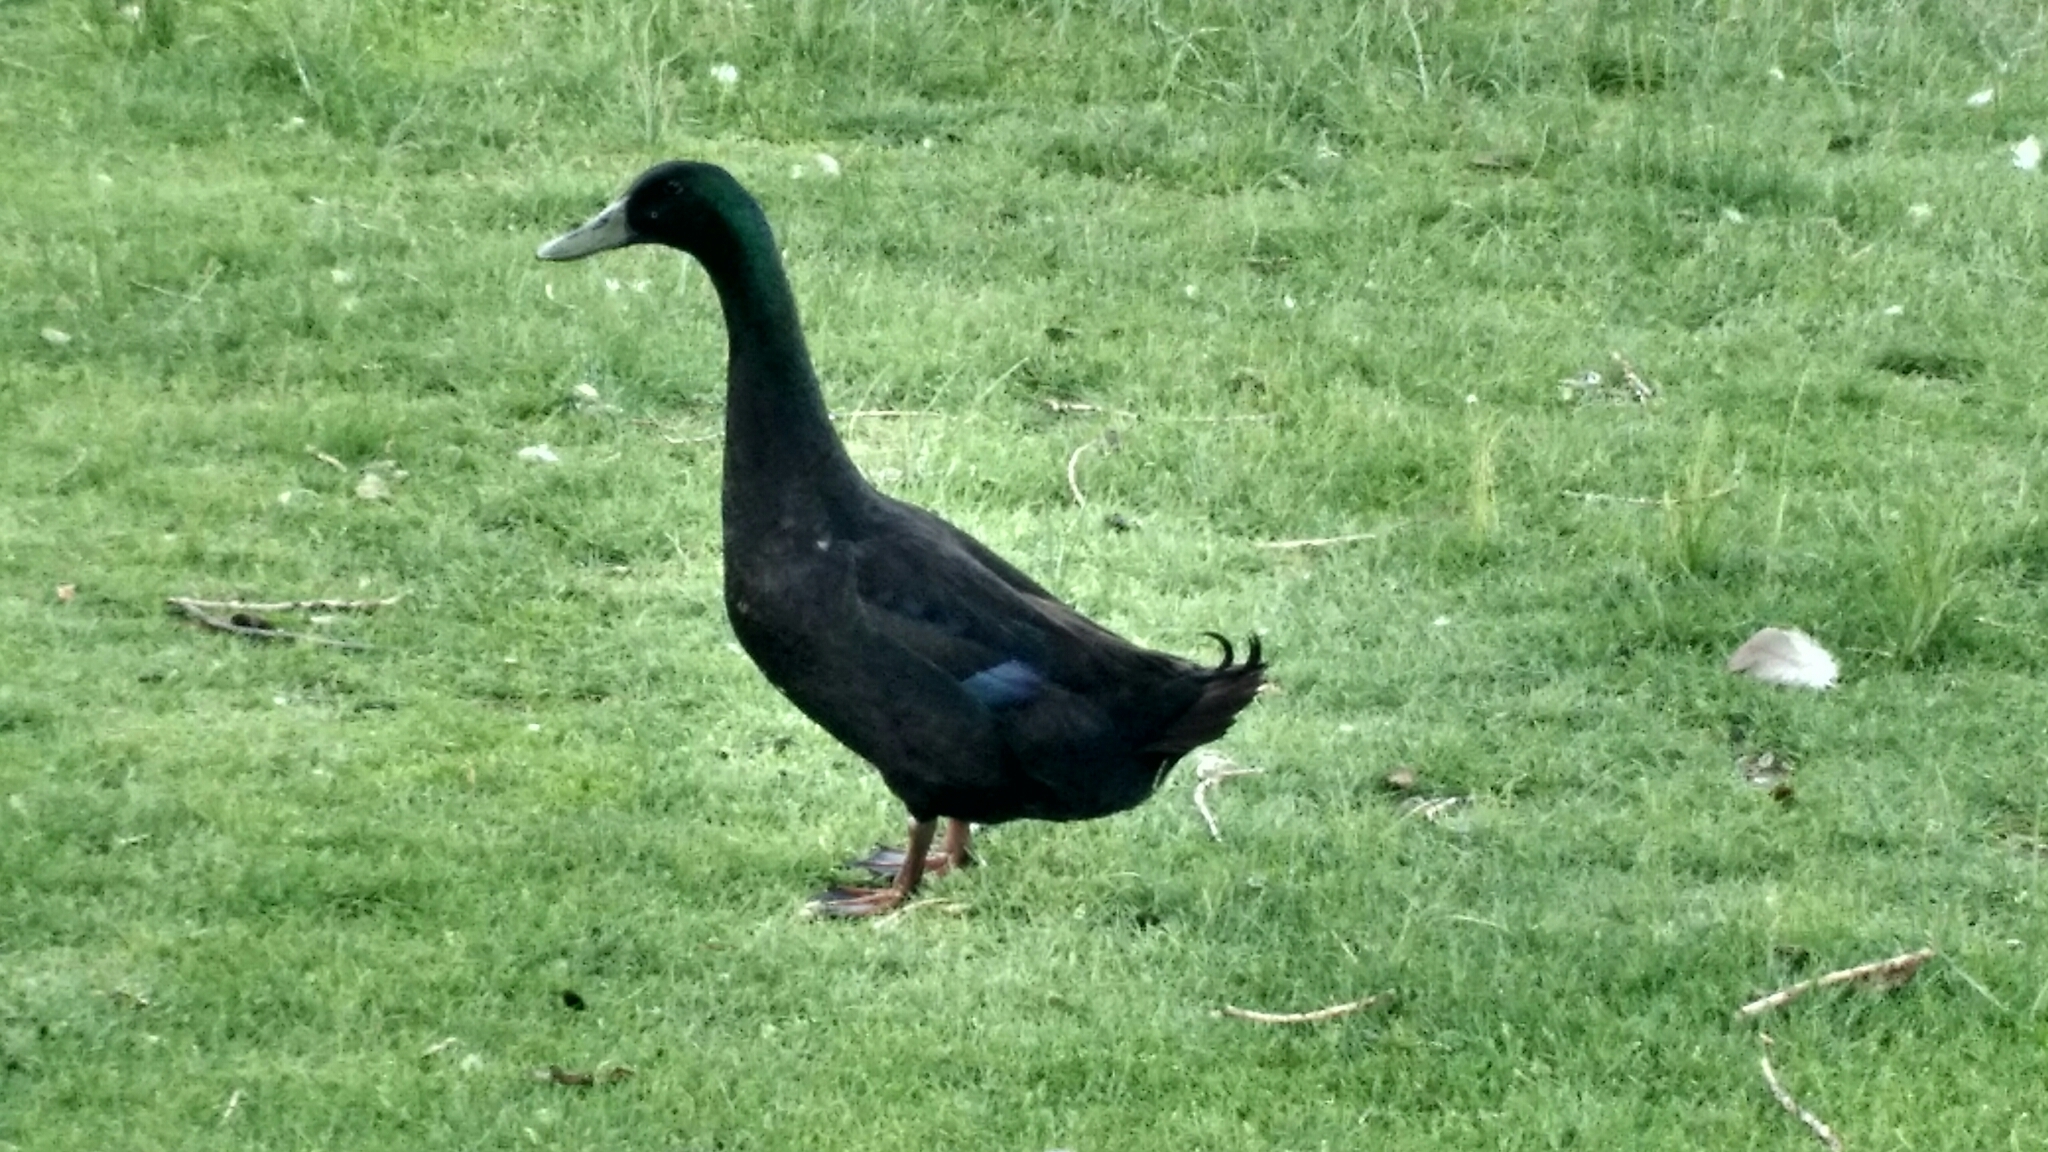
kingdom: Animalia
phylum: Chordata
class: Aves
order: Anseriformes
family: Anatidae
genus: Anas
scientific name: Anas platyrhynchos
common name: Mallard
